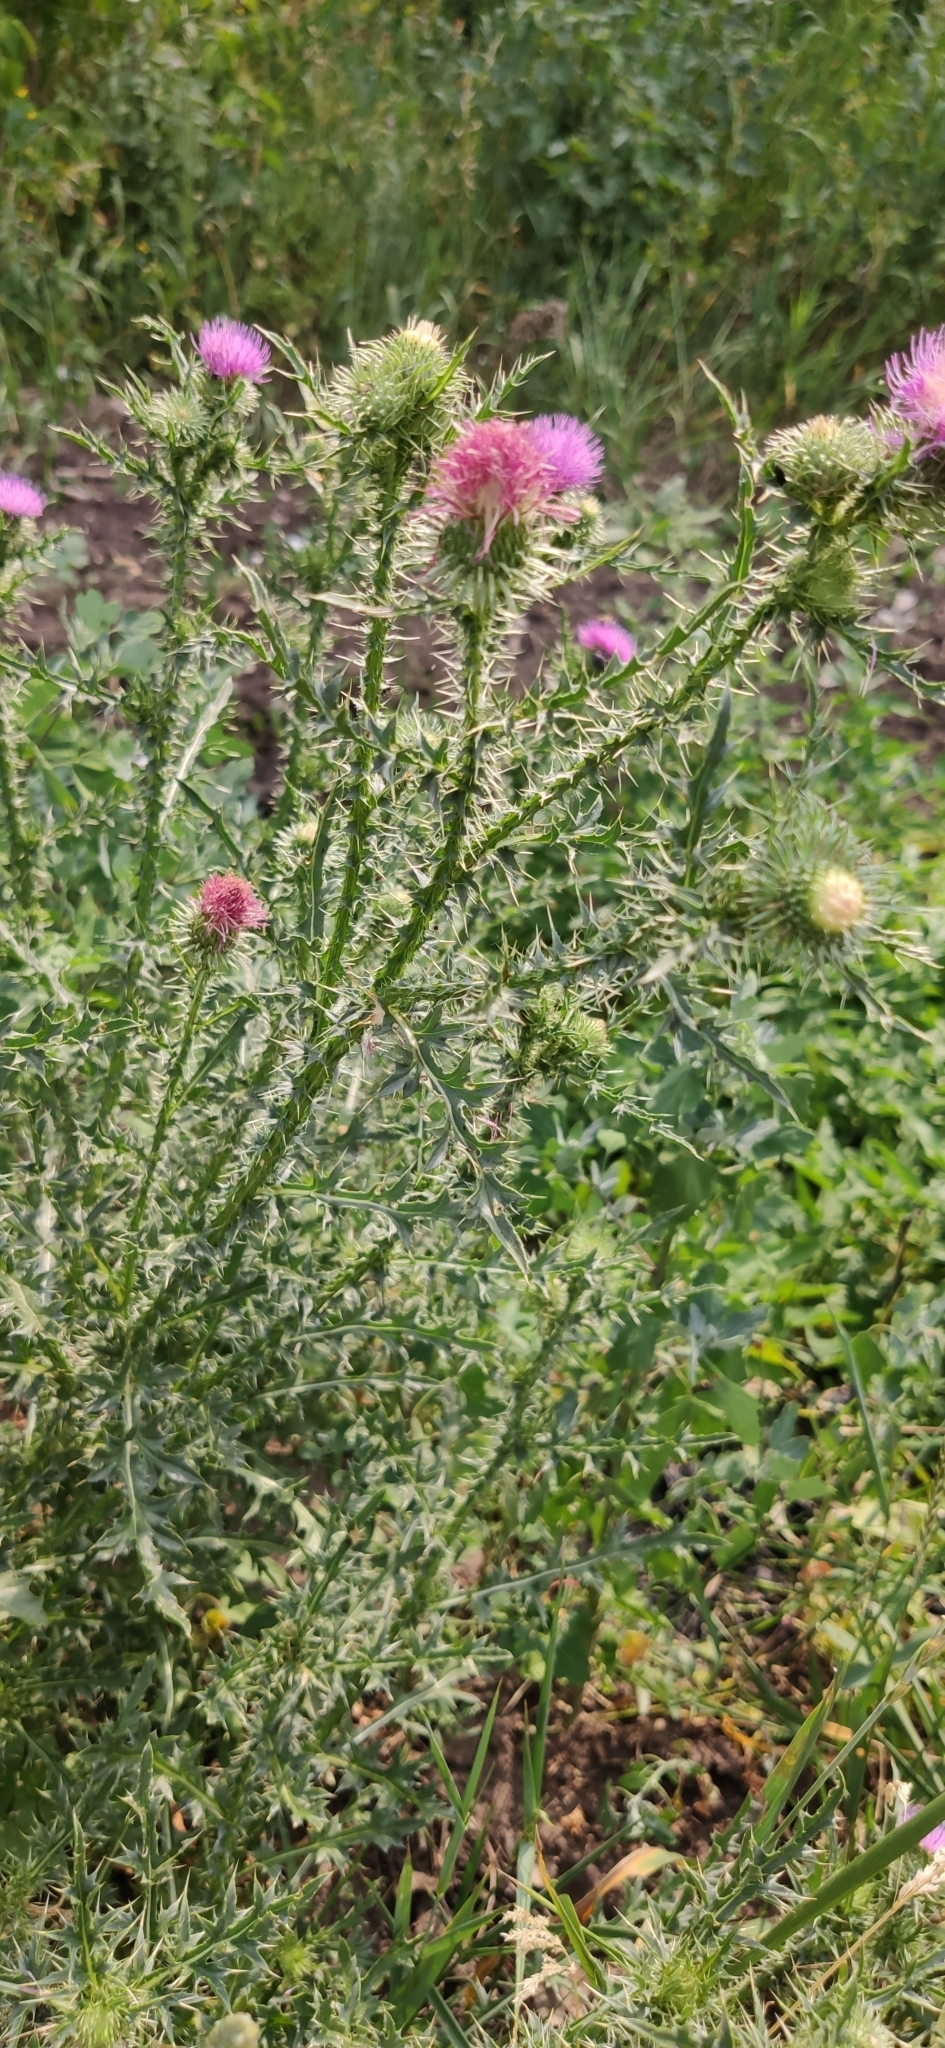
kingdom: Plantae
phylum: Tracheophyta
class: Magnoliopsida
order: Asterales
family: Asteraceae
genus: Carduus
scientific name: Carduus acanthoides
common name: Plumeless thistle
